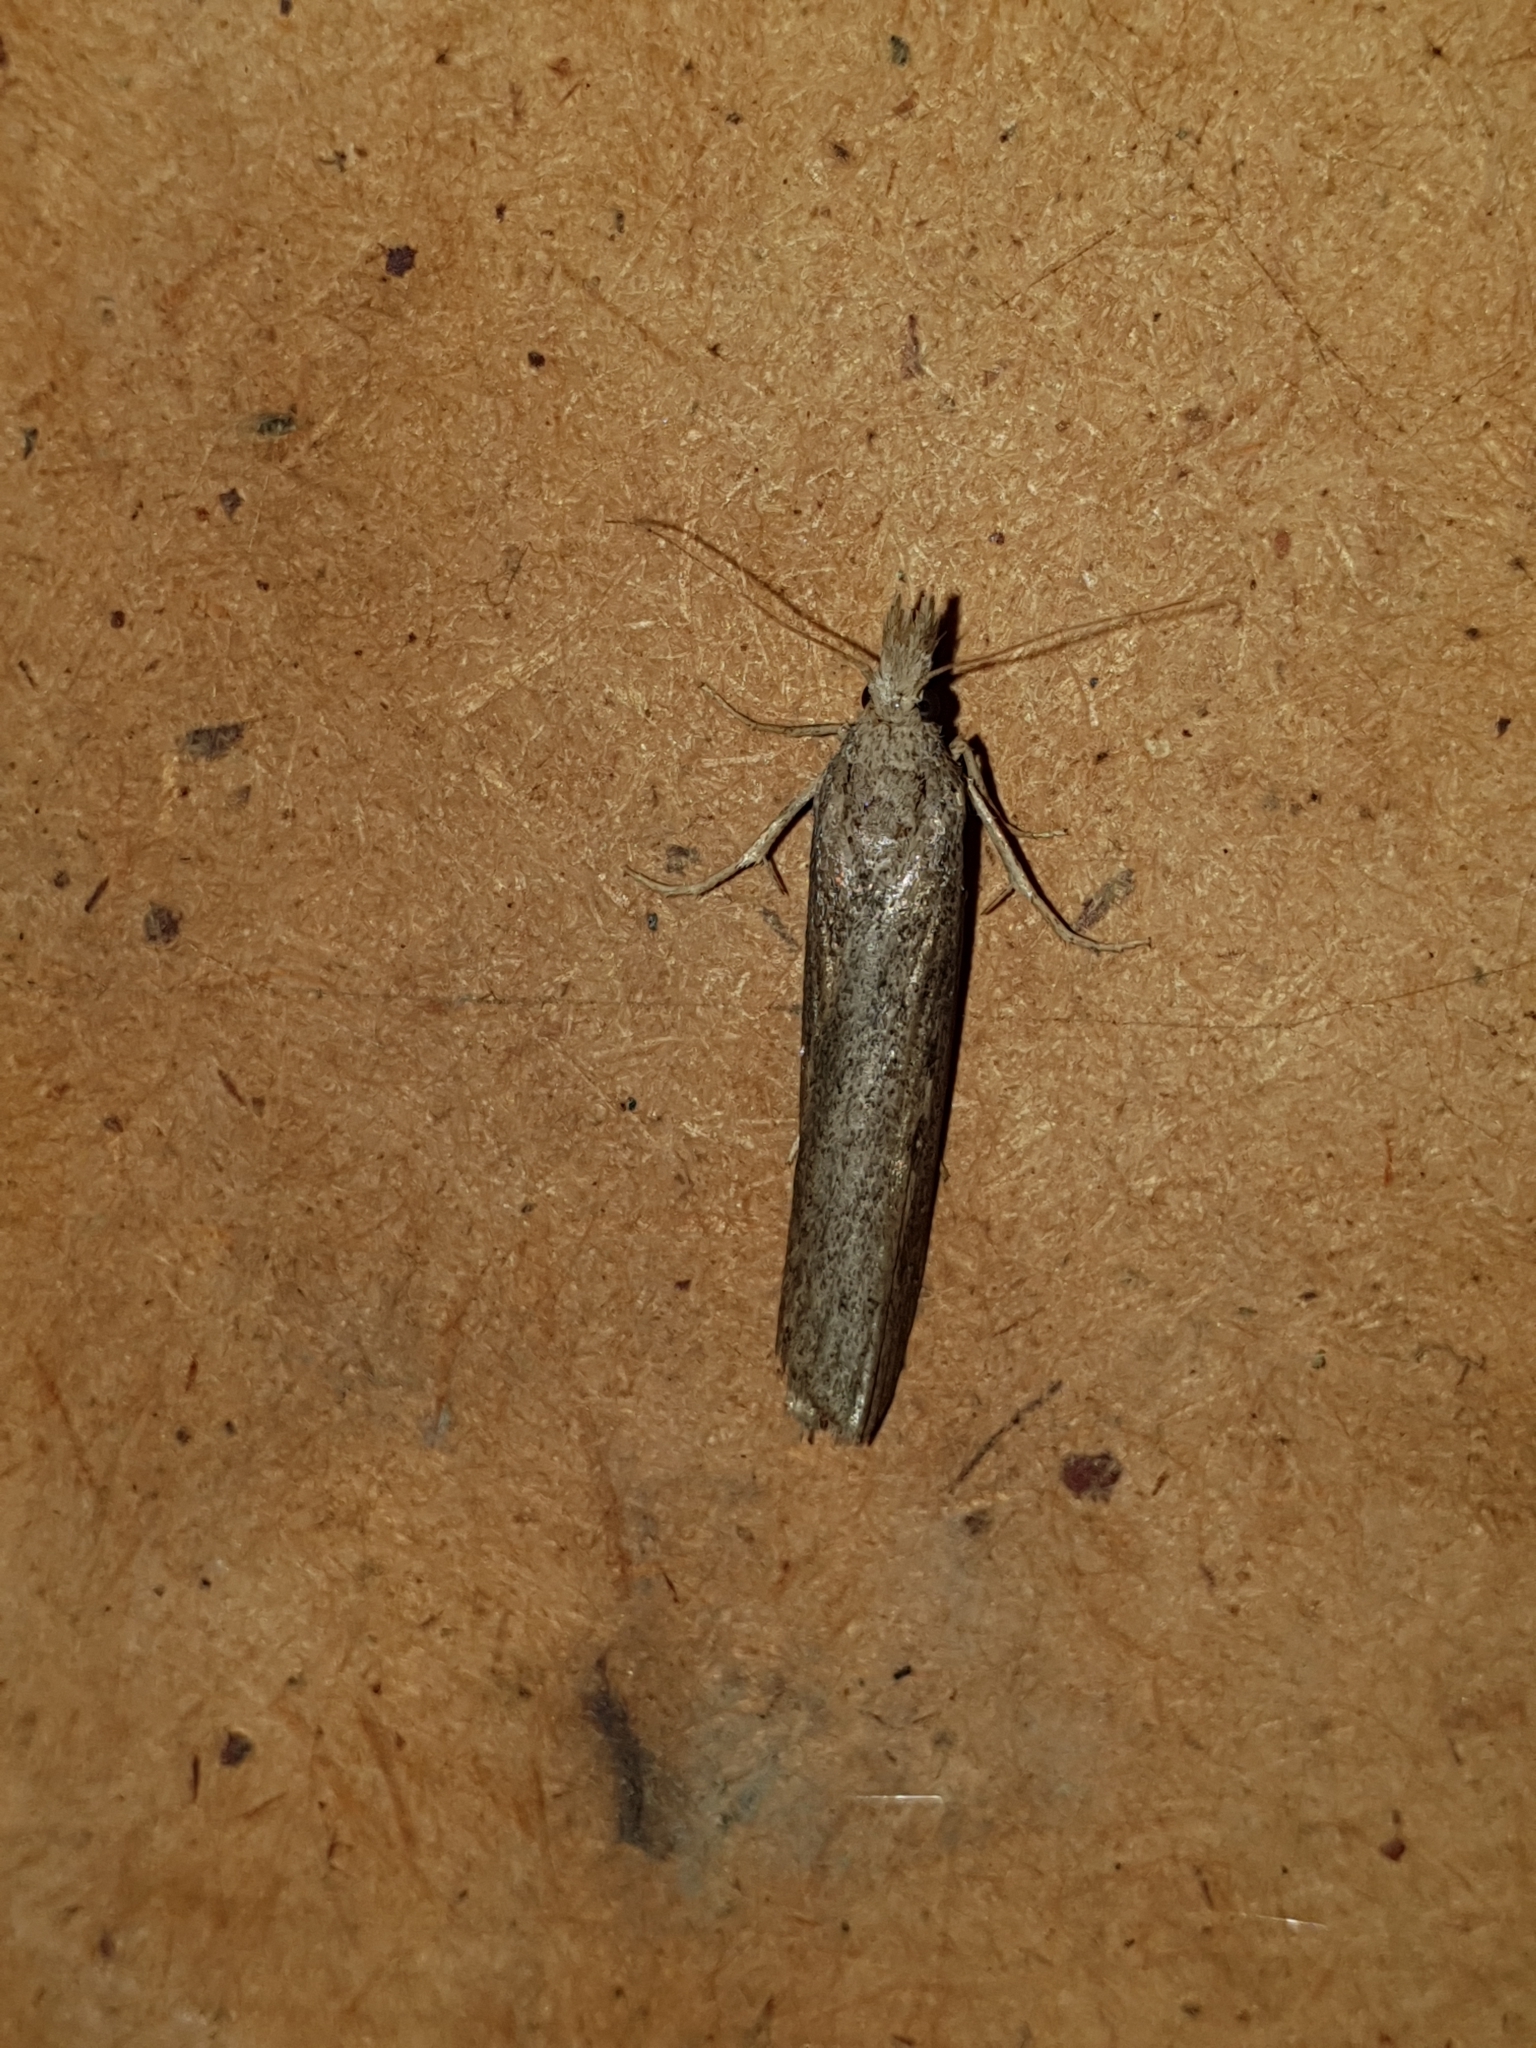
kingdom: Animalia
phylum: Arthropoda
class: Insecta
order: Lepidoptera
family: Pyralidae
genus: Aphomia
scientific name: Aphomia zelleri
